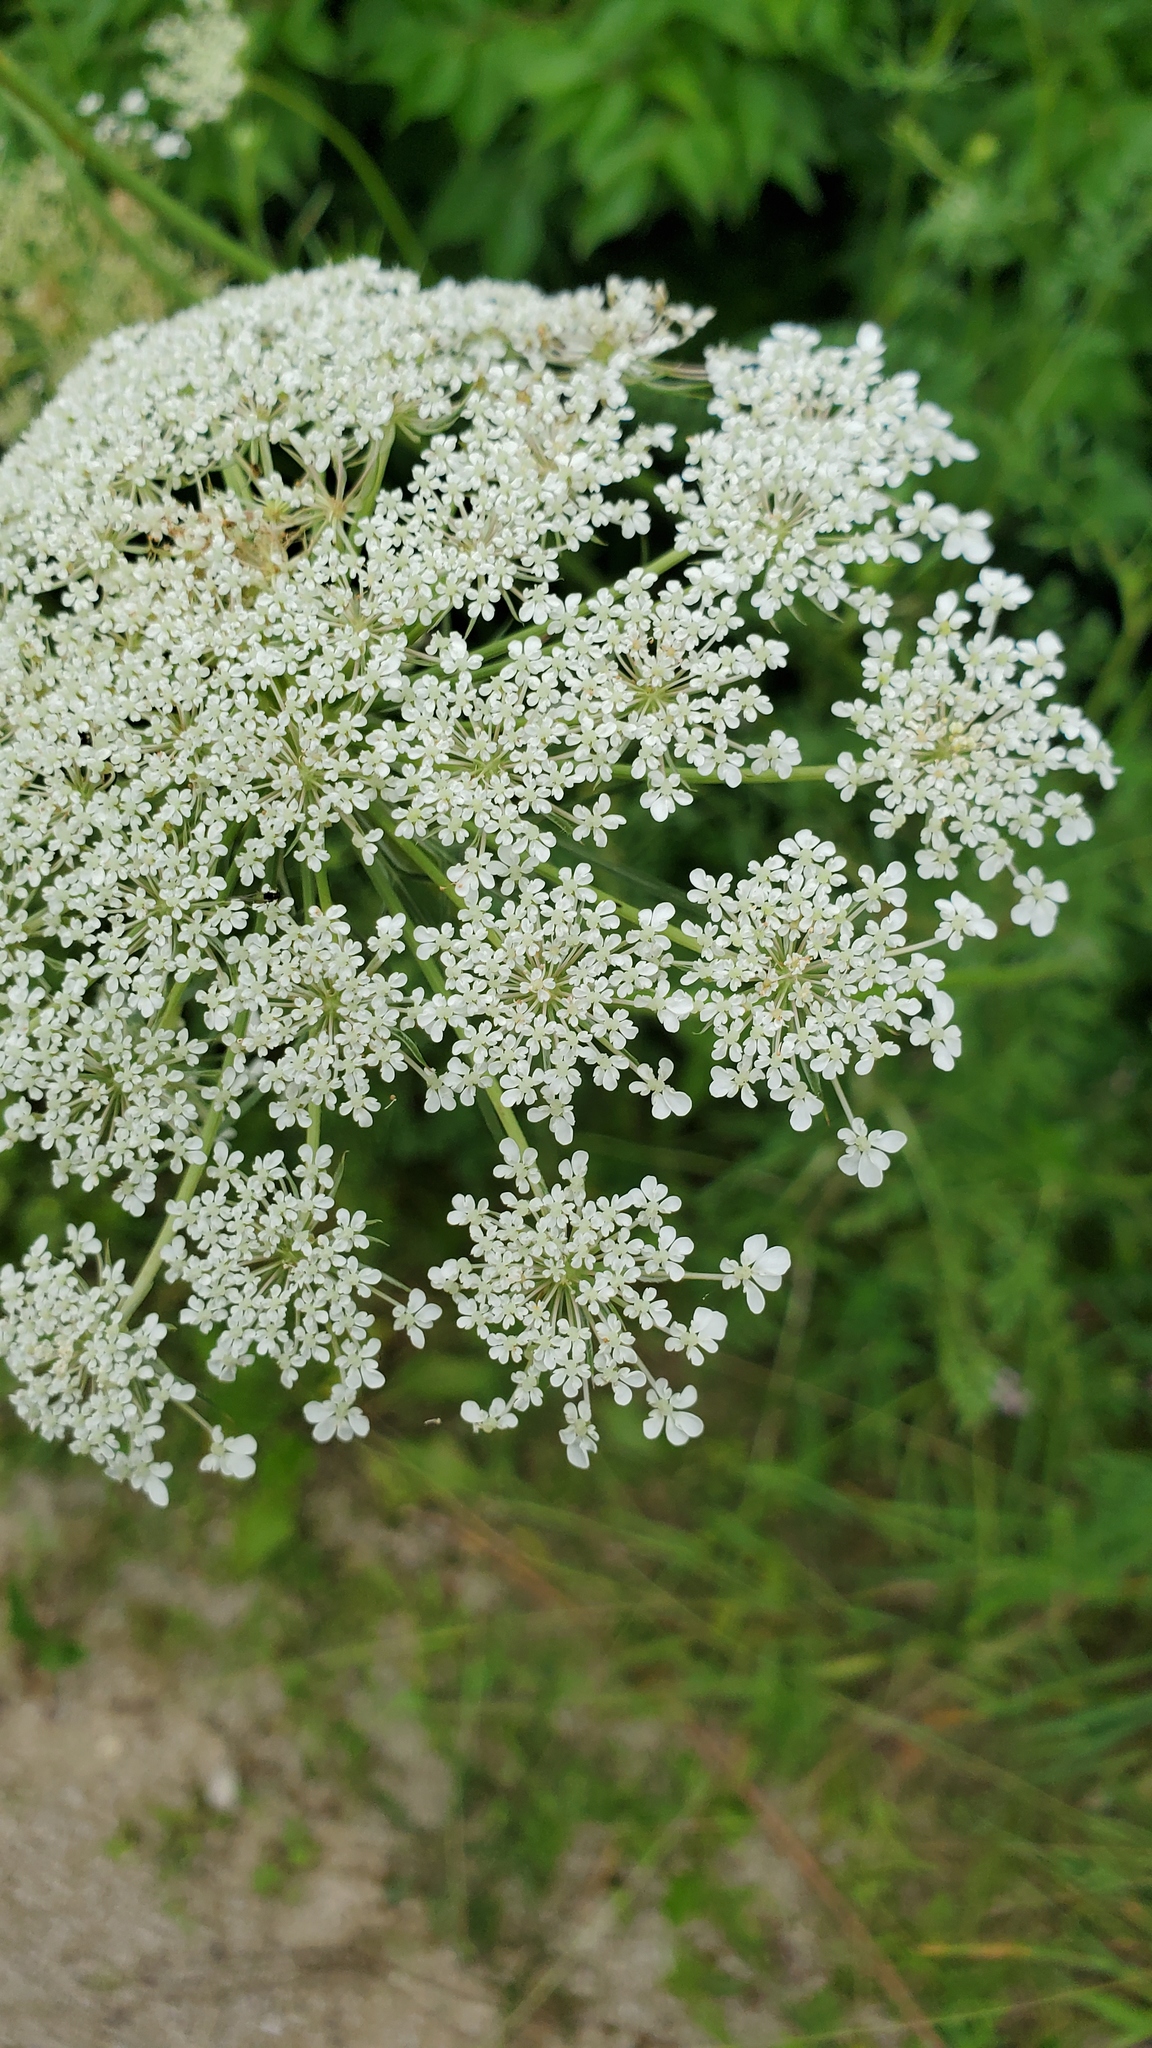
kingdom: Plantae
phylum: Tracheophyta
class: Magnoliopsida
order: Apiales
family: Apiaceae
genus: Daucus
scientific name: Daucus carota
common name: Wild carrot
